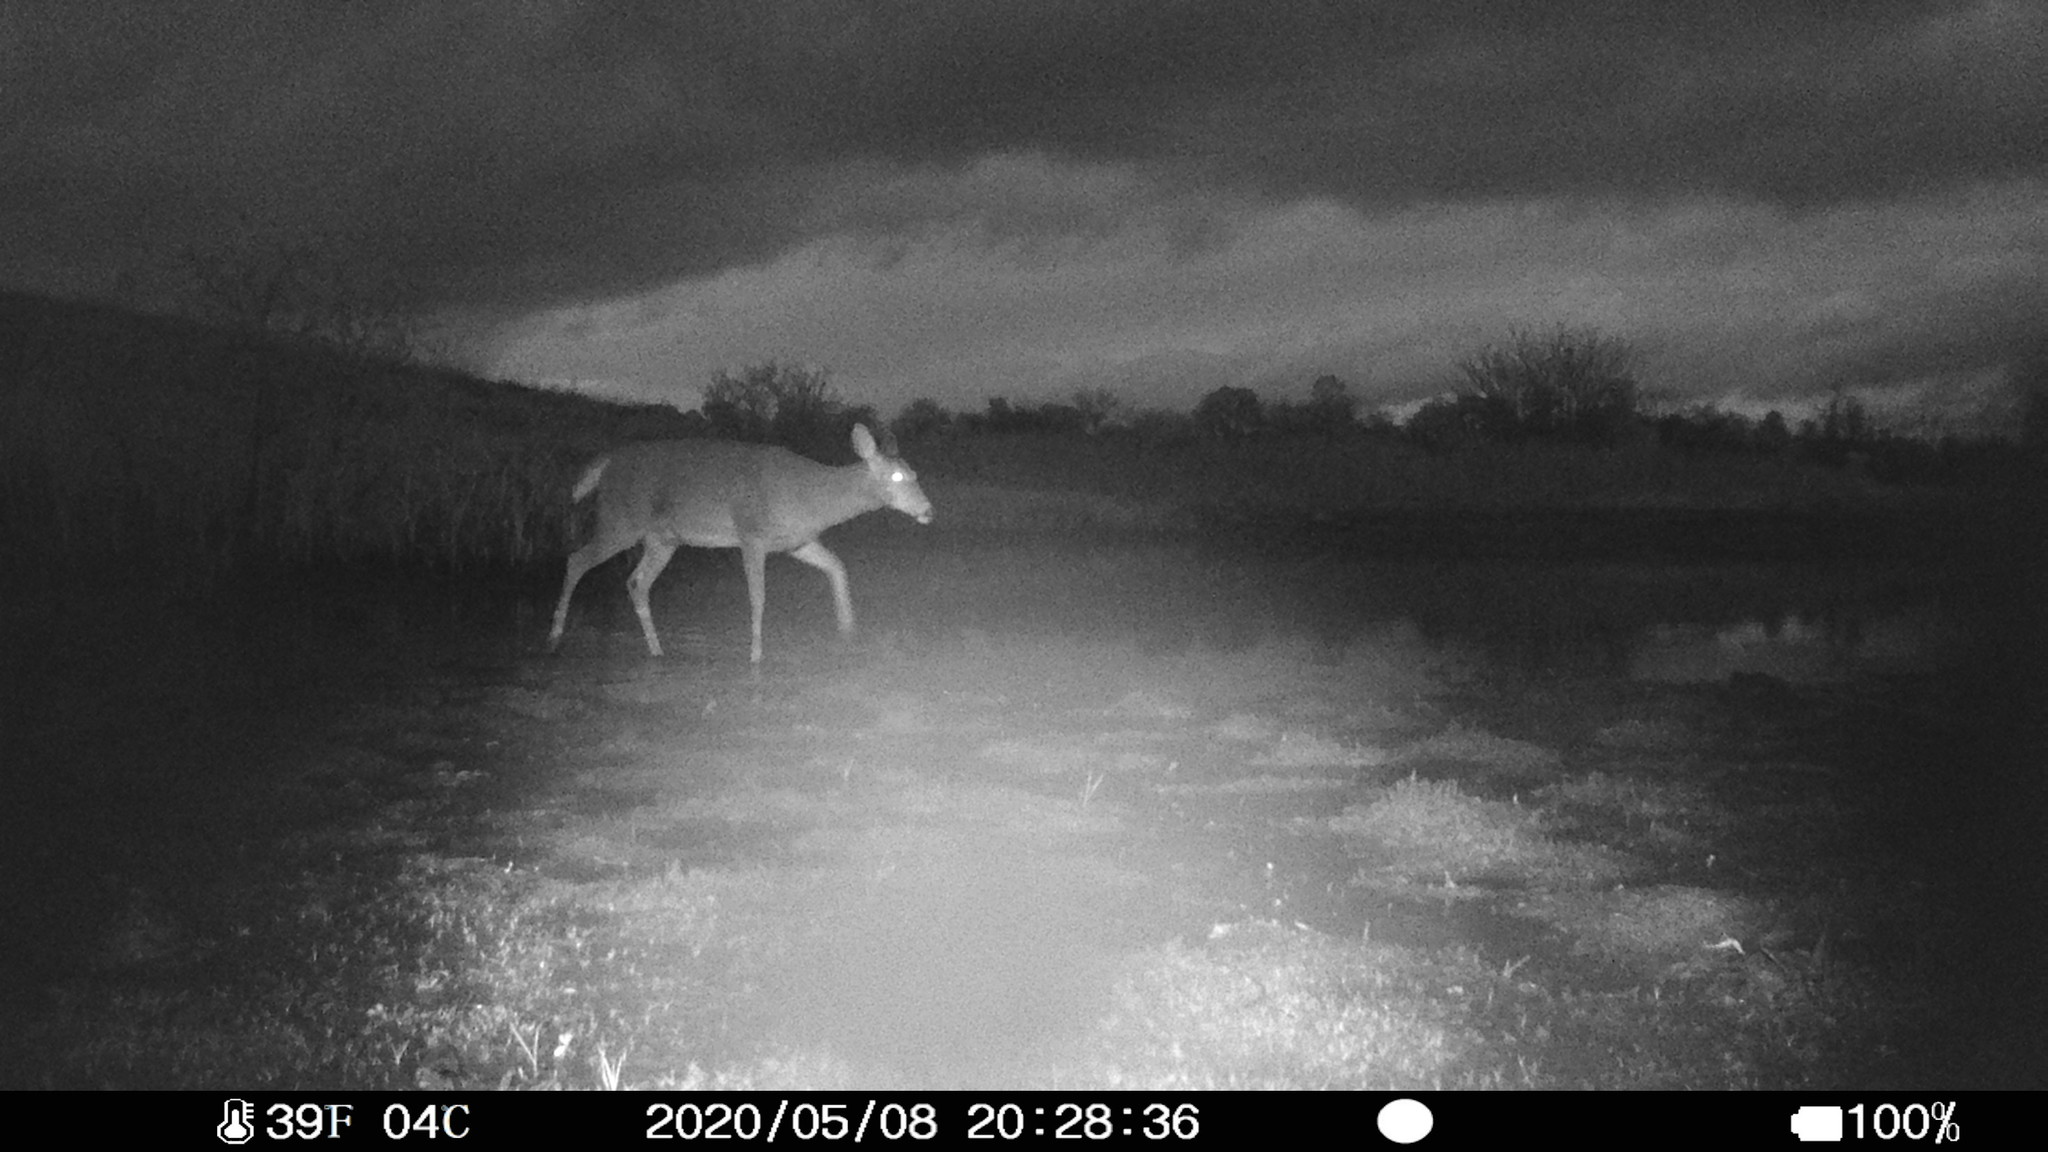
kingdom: Animalia
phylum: Chordata
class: Mammalia
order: Artiodactyla
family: Cervidae
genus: Odocoileus
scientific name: Odocoileus virginianus
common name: White-tailed deer
